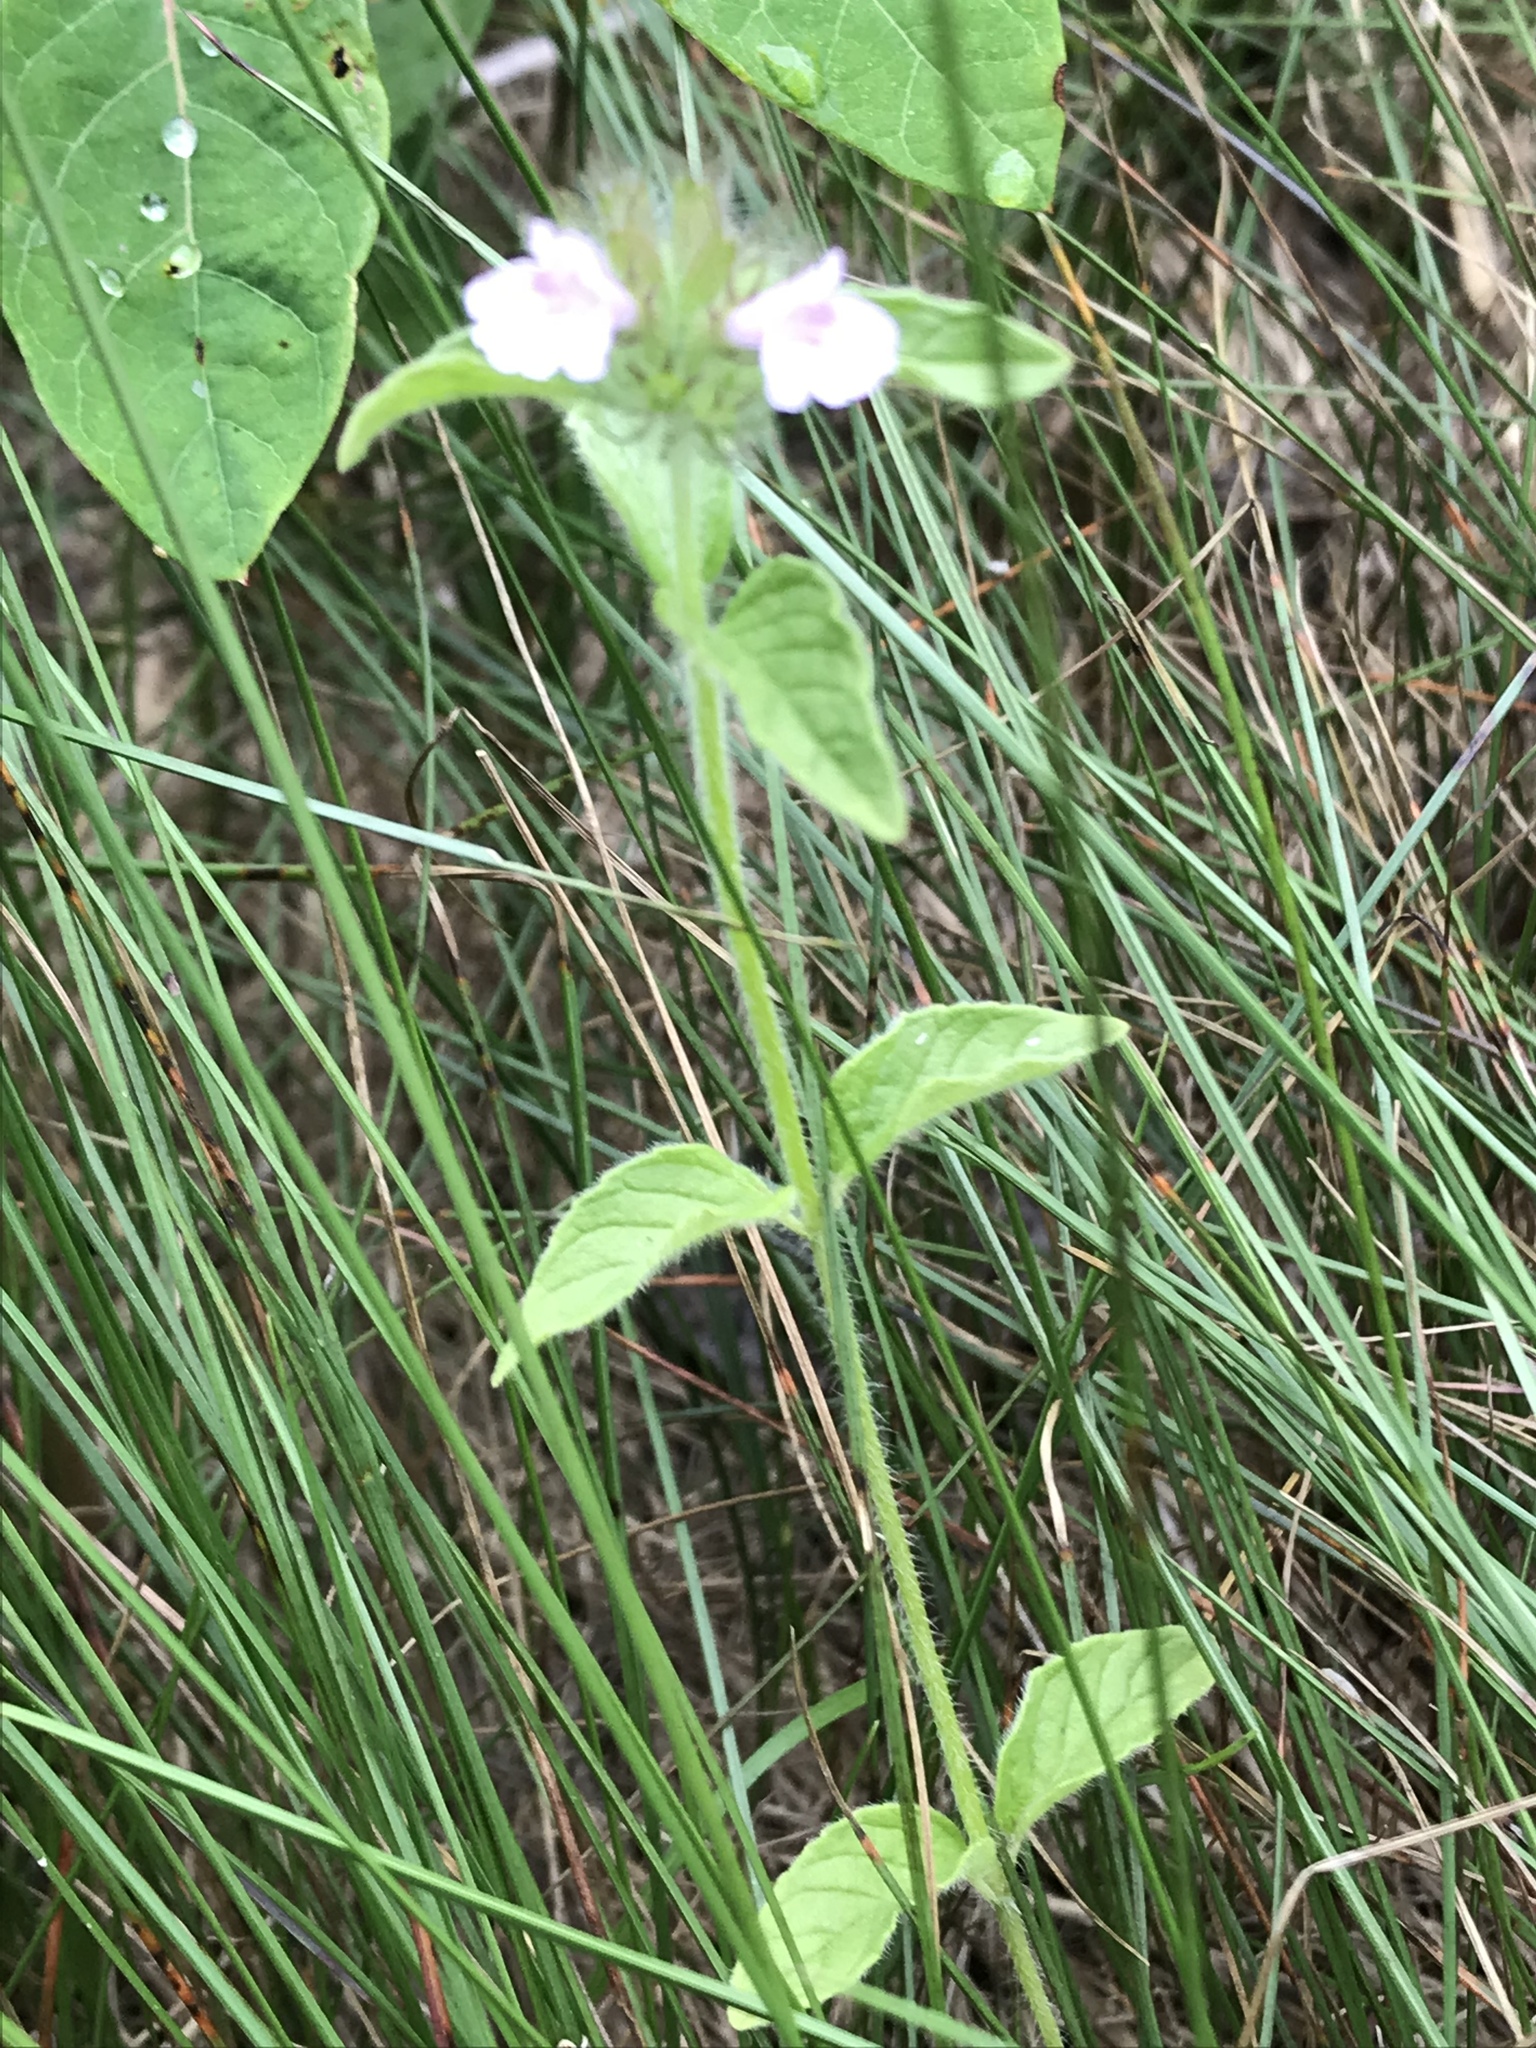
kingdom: Plantae
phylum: Tracheophyta
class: Magnoliopsida
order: Lamiales
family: Lamiaceae
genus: Clinopodium
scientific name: Clinopodium vulgare
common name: Wild basil
